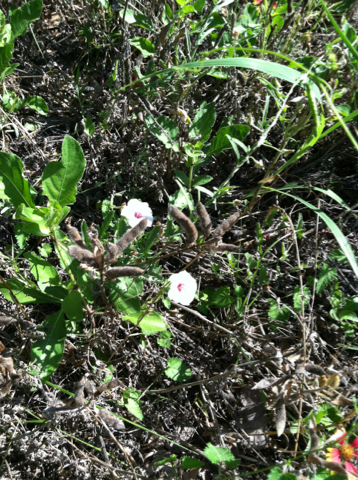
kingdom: Plantae
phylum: Tracheophyta
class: Magnoliopsida
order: Solanales
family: Convolvulaceae
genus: Convolvulus
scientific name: Convolvulus equitans
